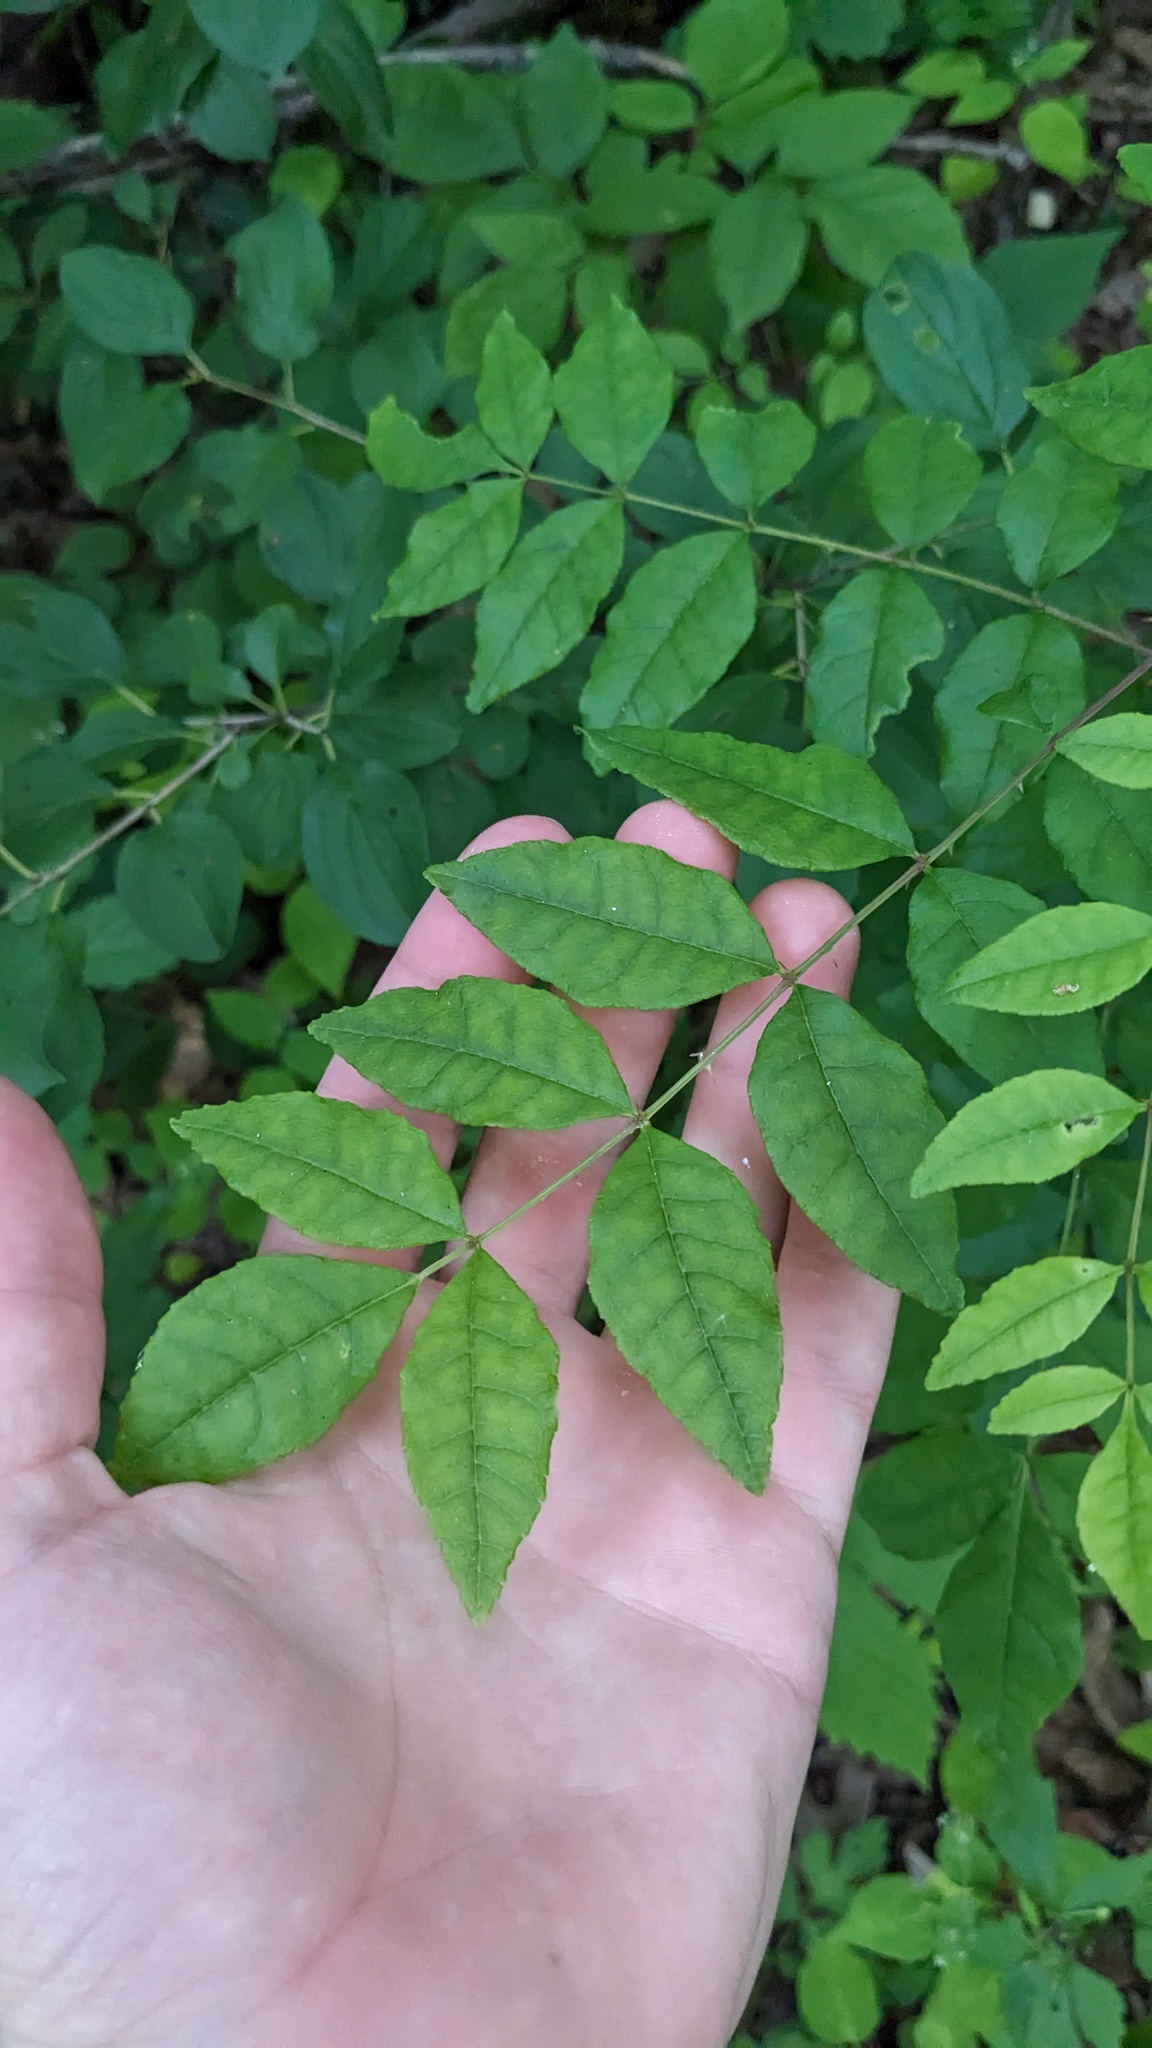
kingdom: Plantae
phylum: Tracheophyta
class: Magnoliopsida
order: Sapindales
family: Rutaceae
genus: Zanthoxylum
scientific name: Zanthoxylum americanum
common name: Northern prickly-ash
